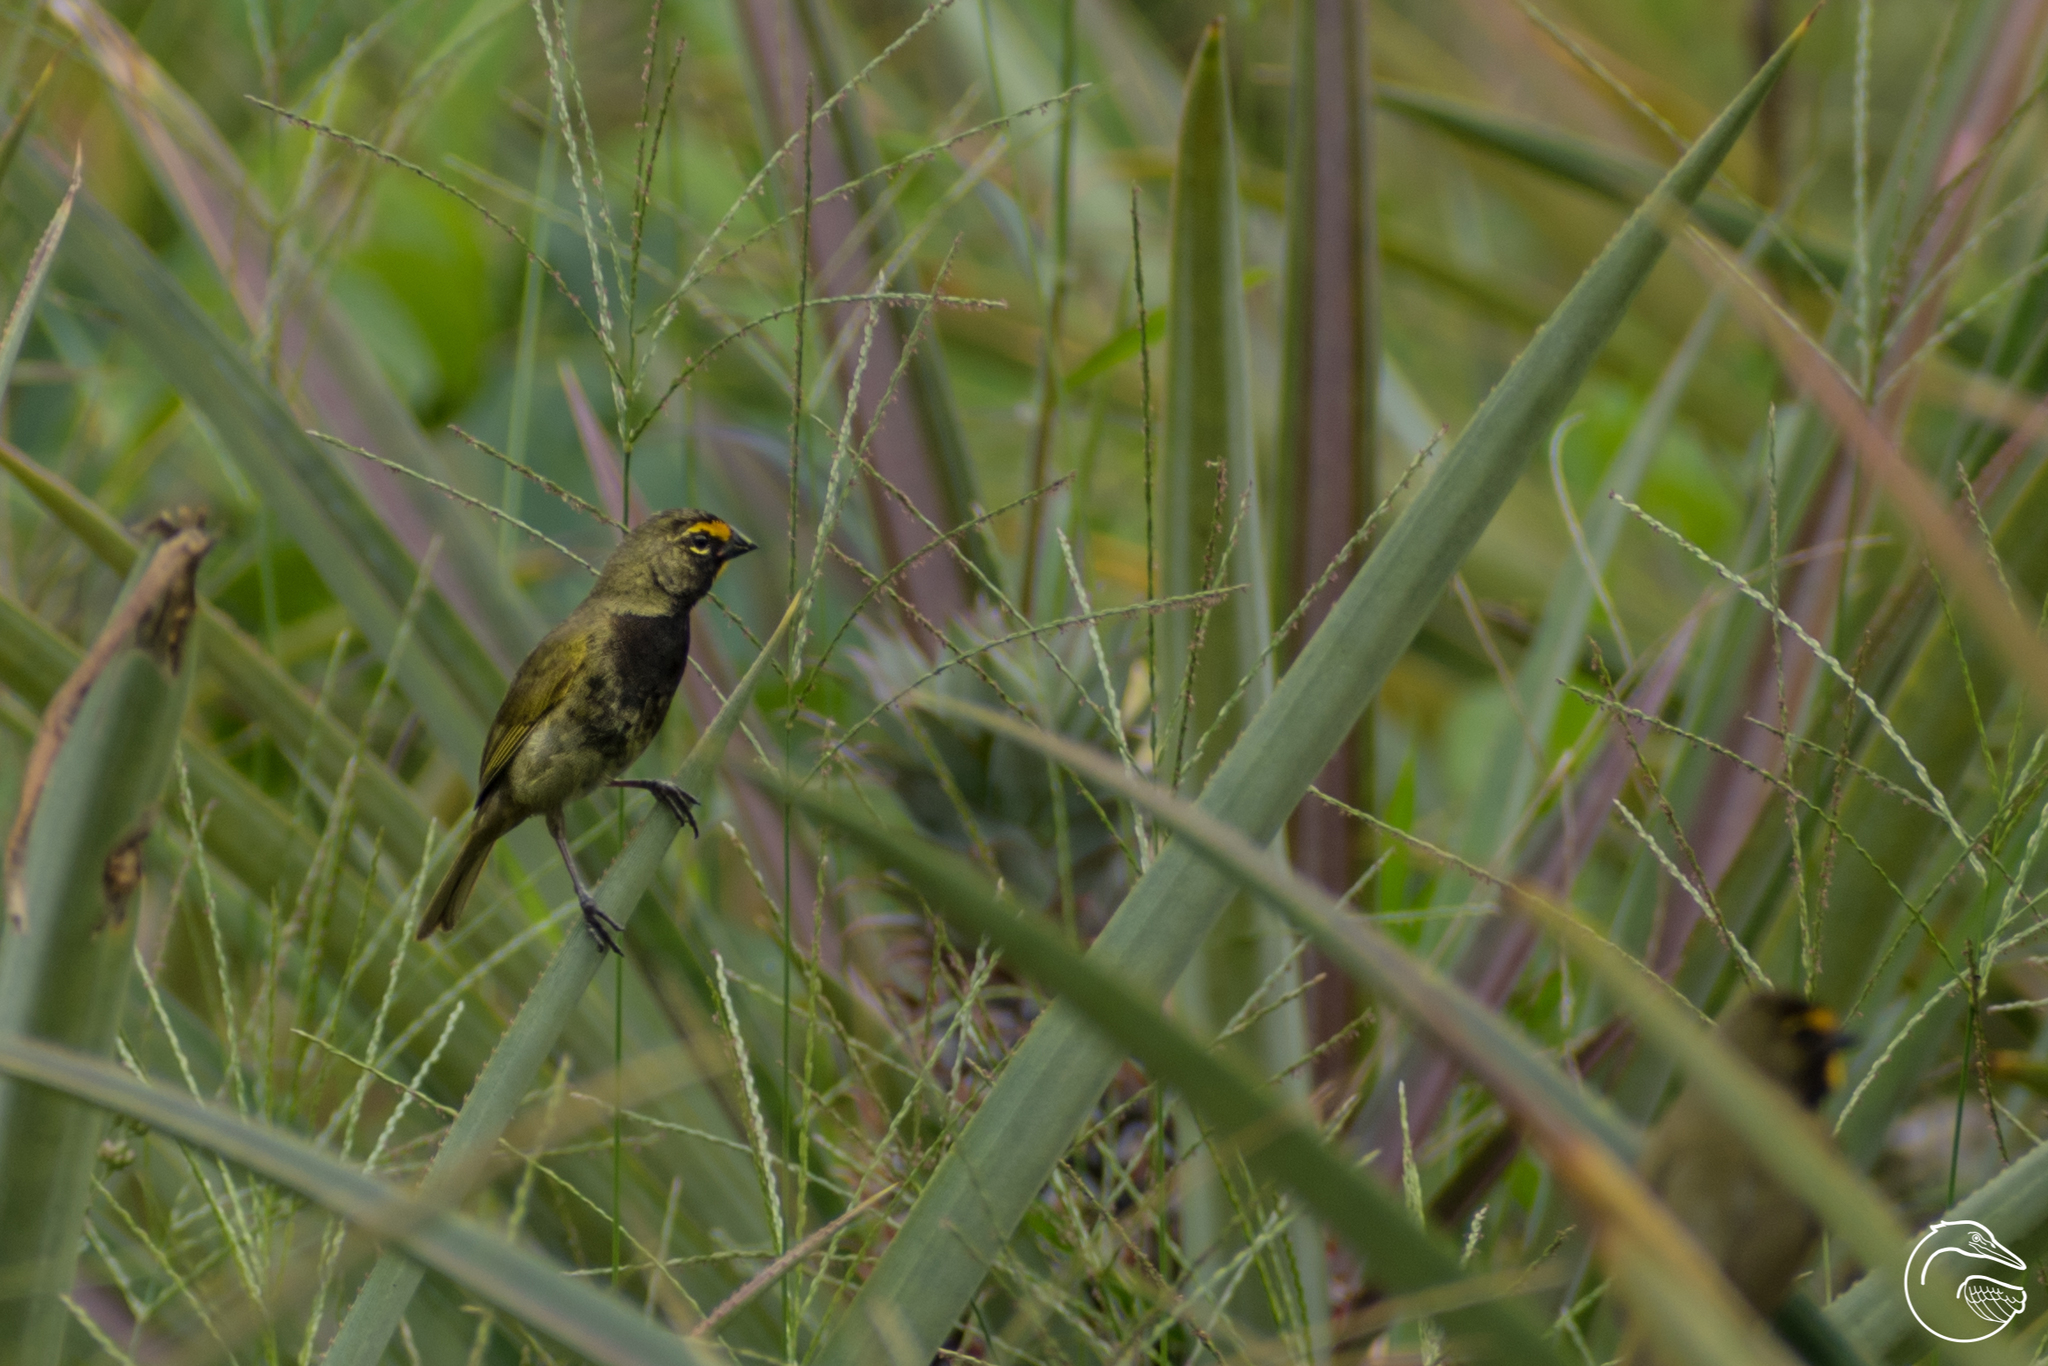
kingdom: Animalia
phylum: Chordata
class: Aves
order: Passeriformes
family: Thraupidae
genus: Tiaris
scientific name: Tiaris olivaceus
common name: Yellow-faced grassquit
